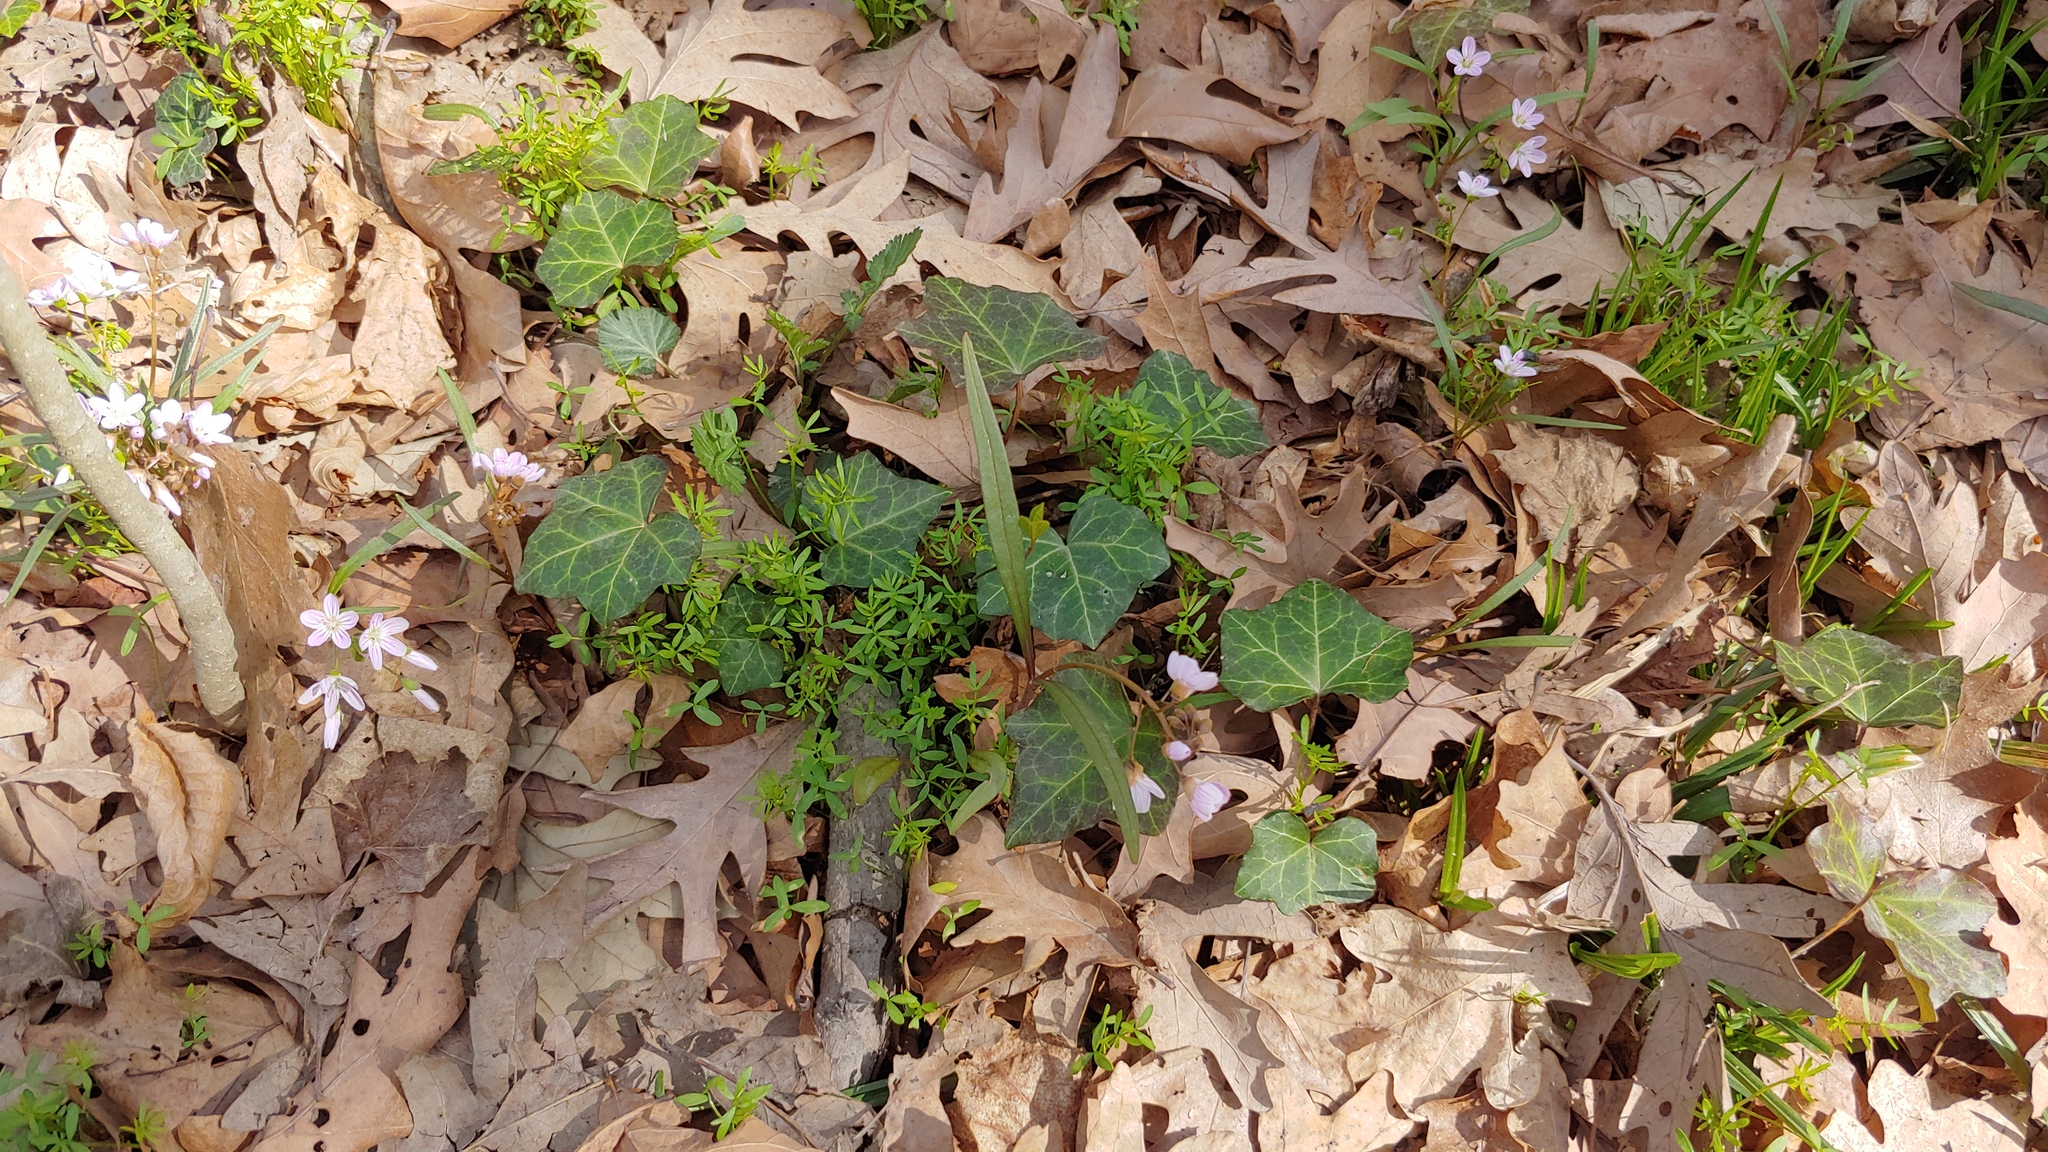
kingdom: Plantae
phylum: Tracheophyta
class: Magnoliopsida
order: Apiales
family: Araliaceae
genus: Hedera
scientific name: Hedera helix
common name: Ivy
